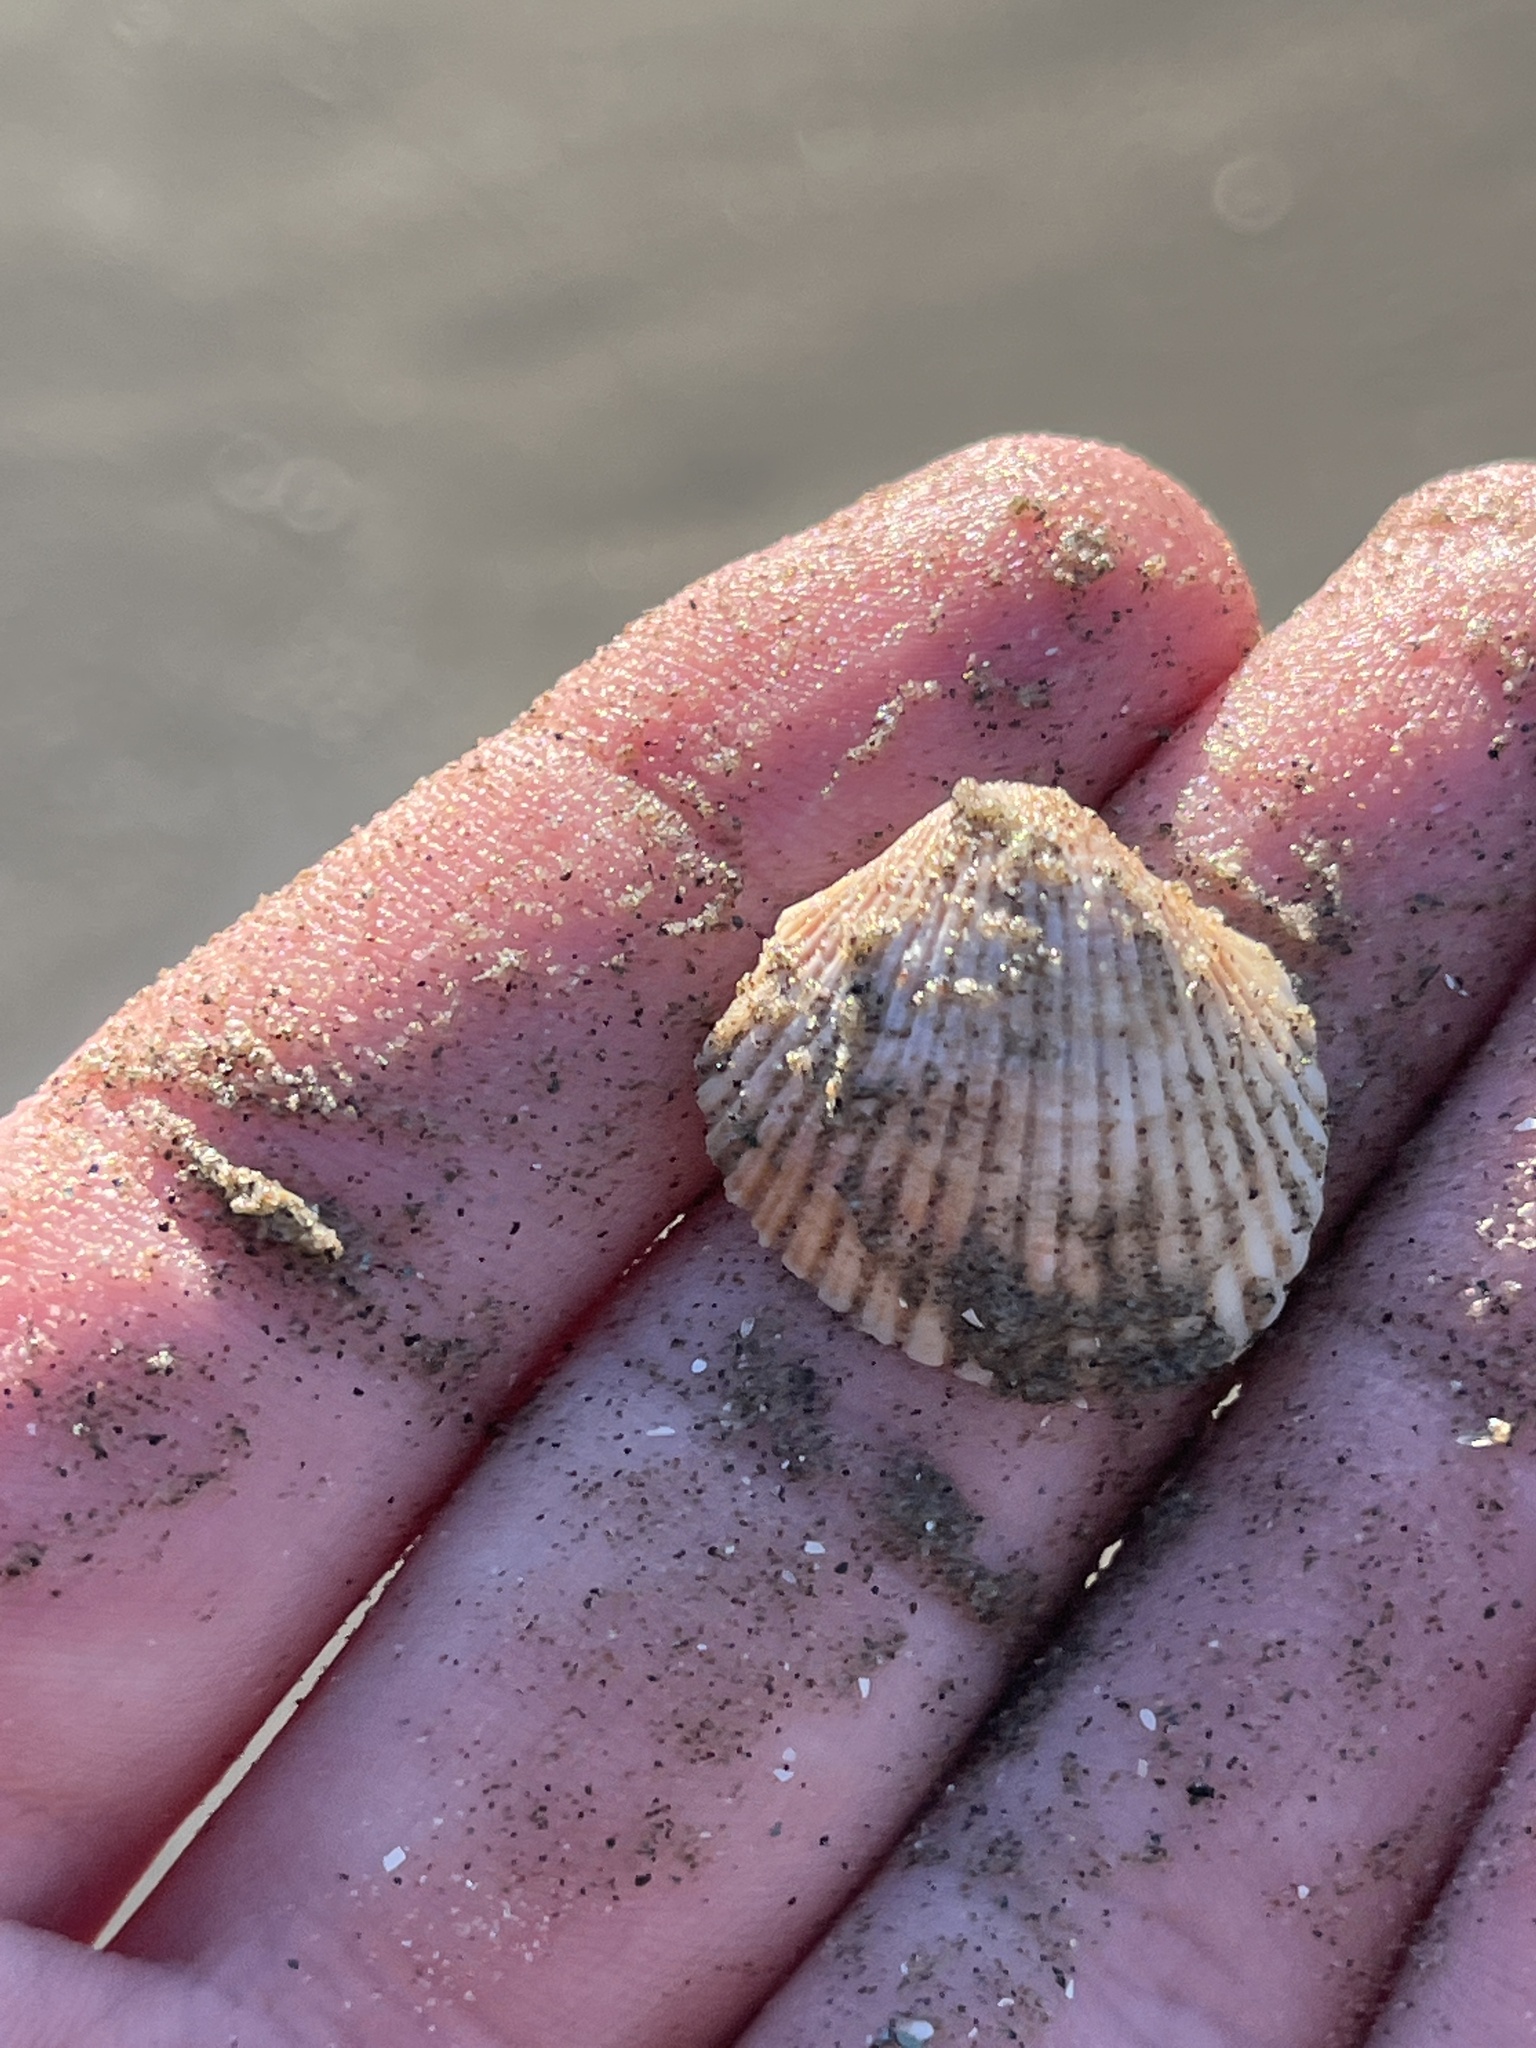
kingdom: Animalia
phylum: Mollusca
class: Bivalvia
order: Arcida
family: Arcidae
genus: Lunarca
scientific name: Lunarca ovalis
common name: Blood ark
